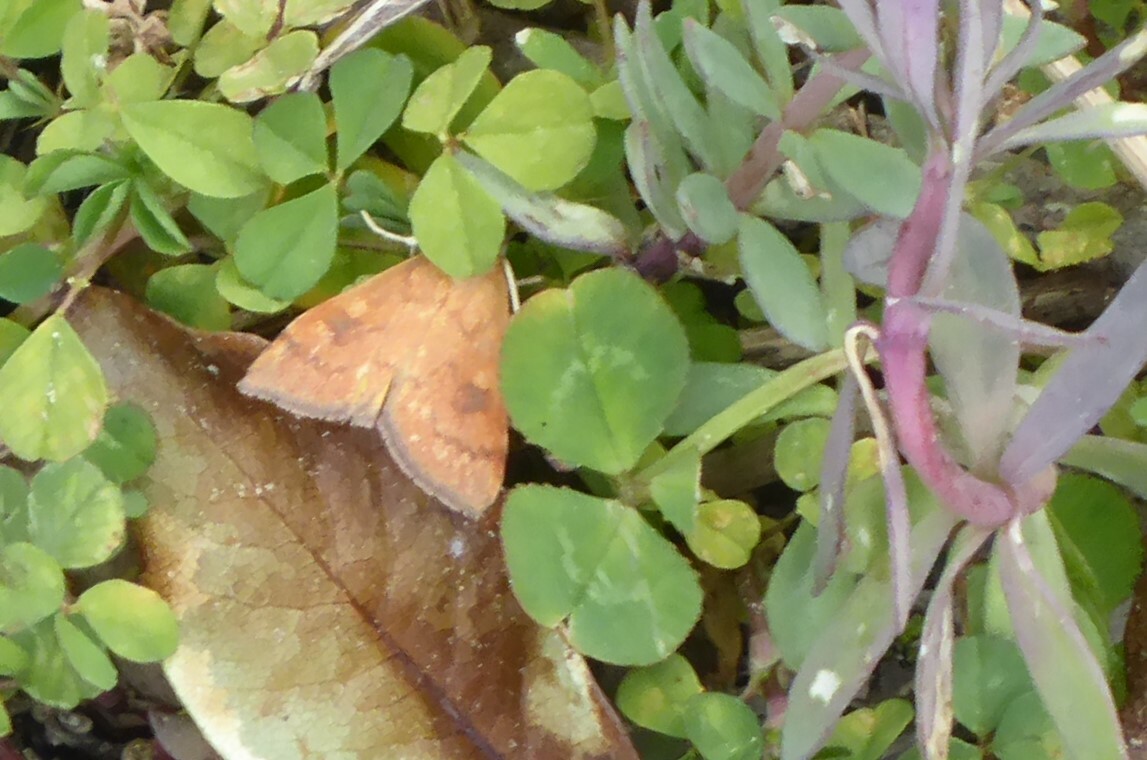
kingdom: Animalia
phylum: Arthropoda
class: Insecta
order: Lepidoptera
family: Crambidae
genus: Udea
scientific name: Udea Mnesictena flavidalis
